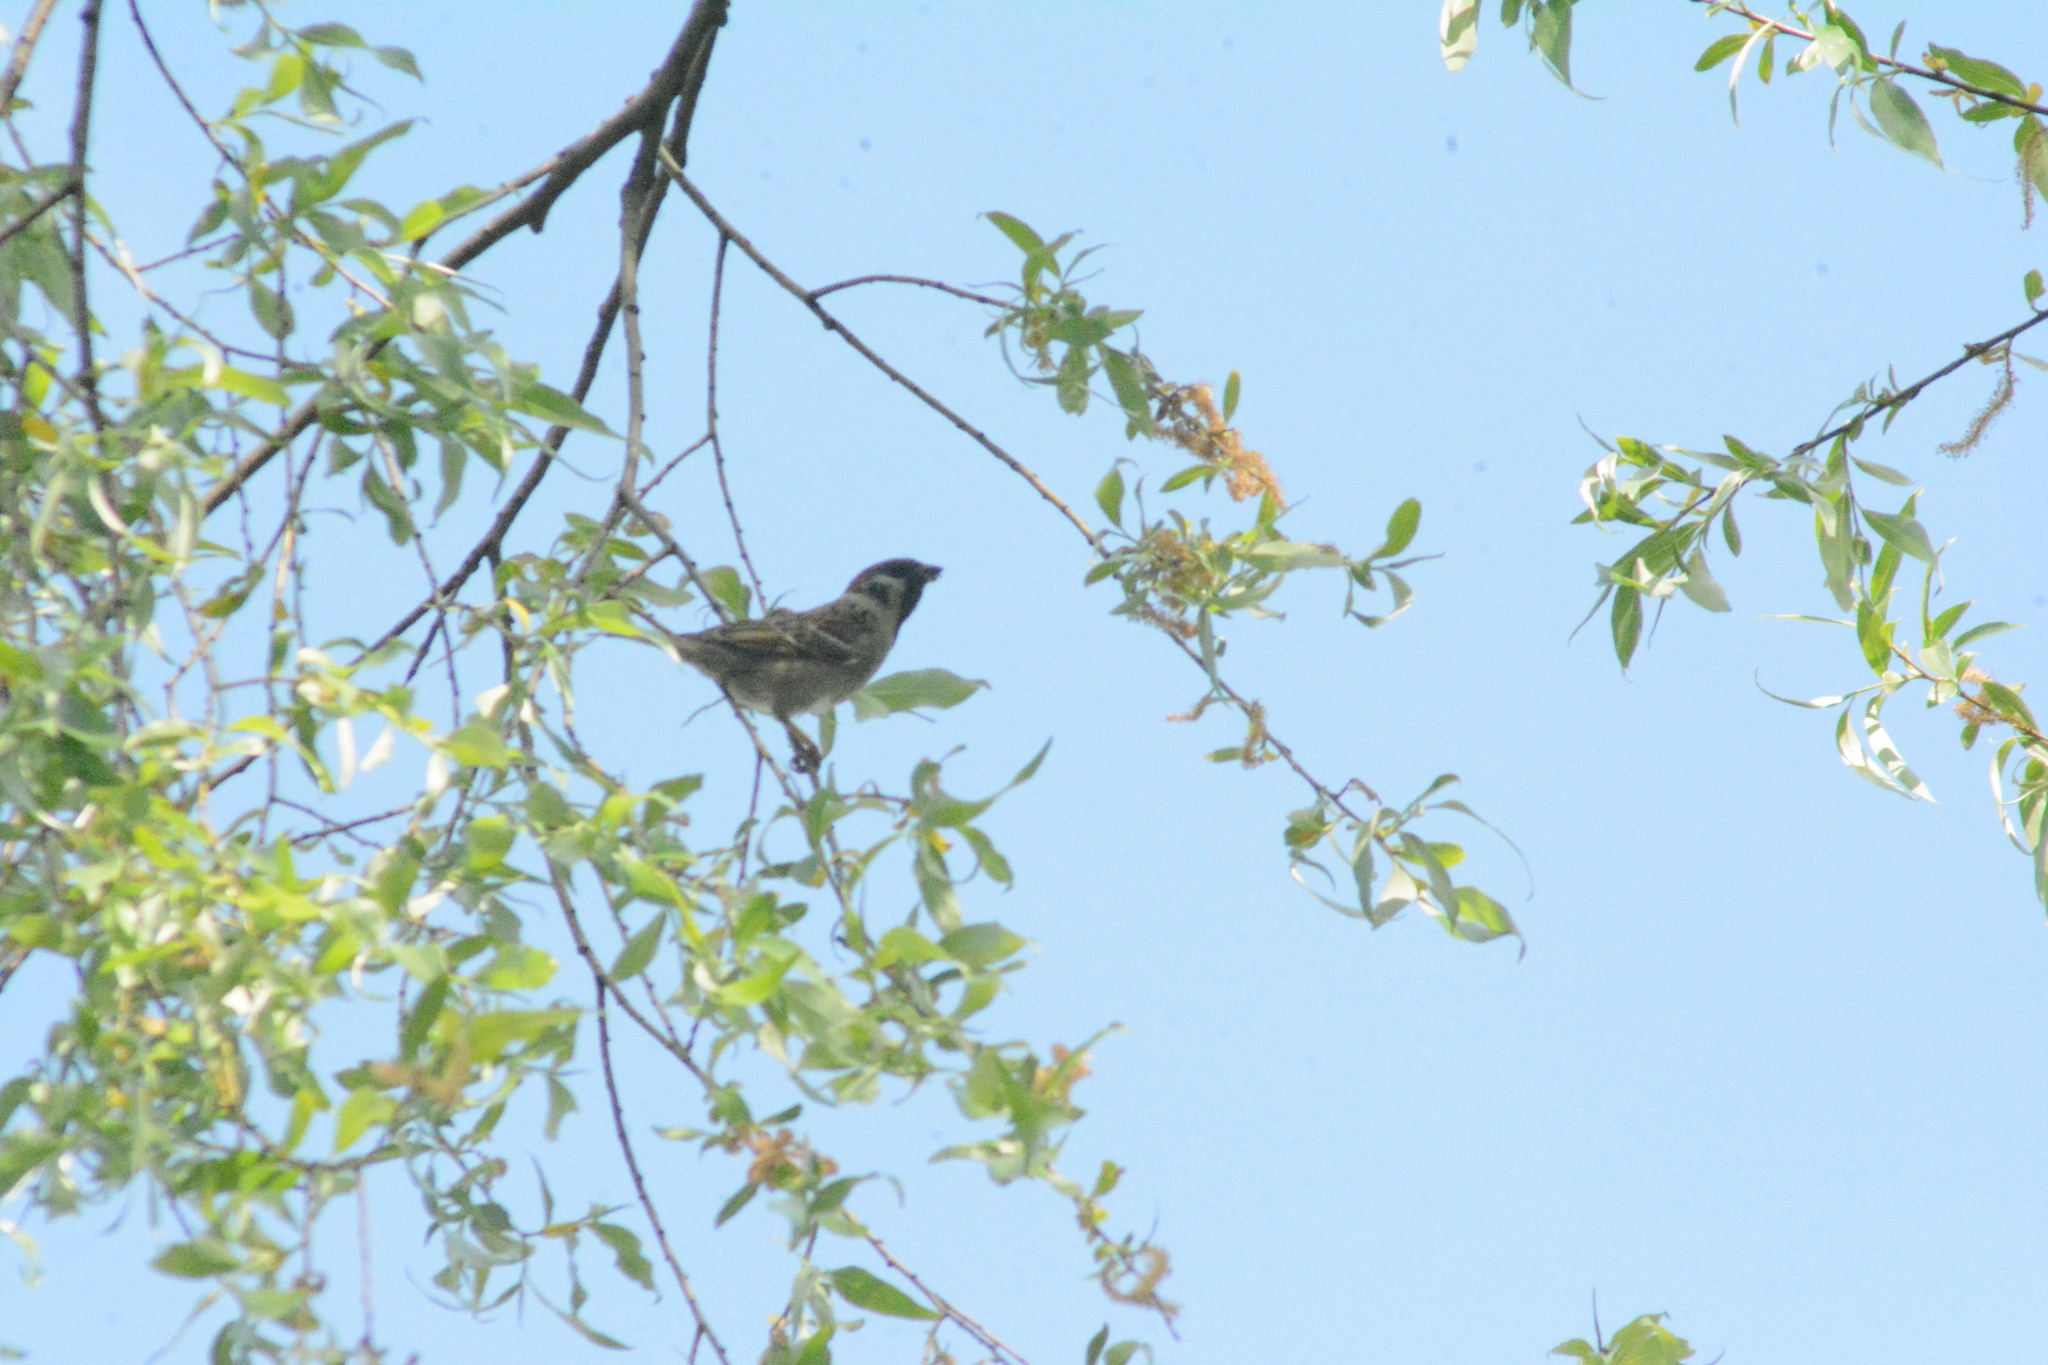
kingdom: Animalia
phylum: Chordata
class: Aves
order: Passeriformes
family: Passeridae
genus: Passer
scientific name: Passer montanus
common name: Eurasian tree sparrow
